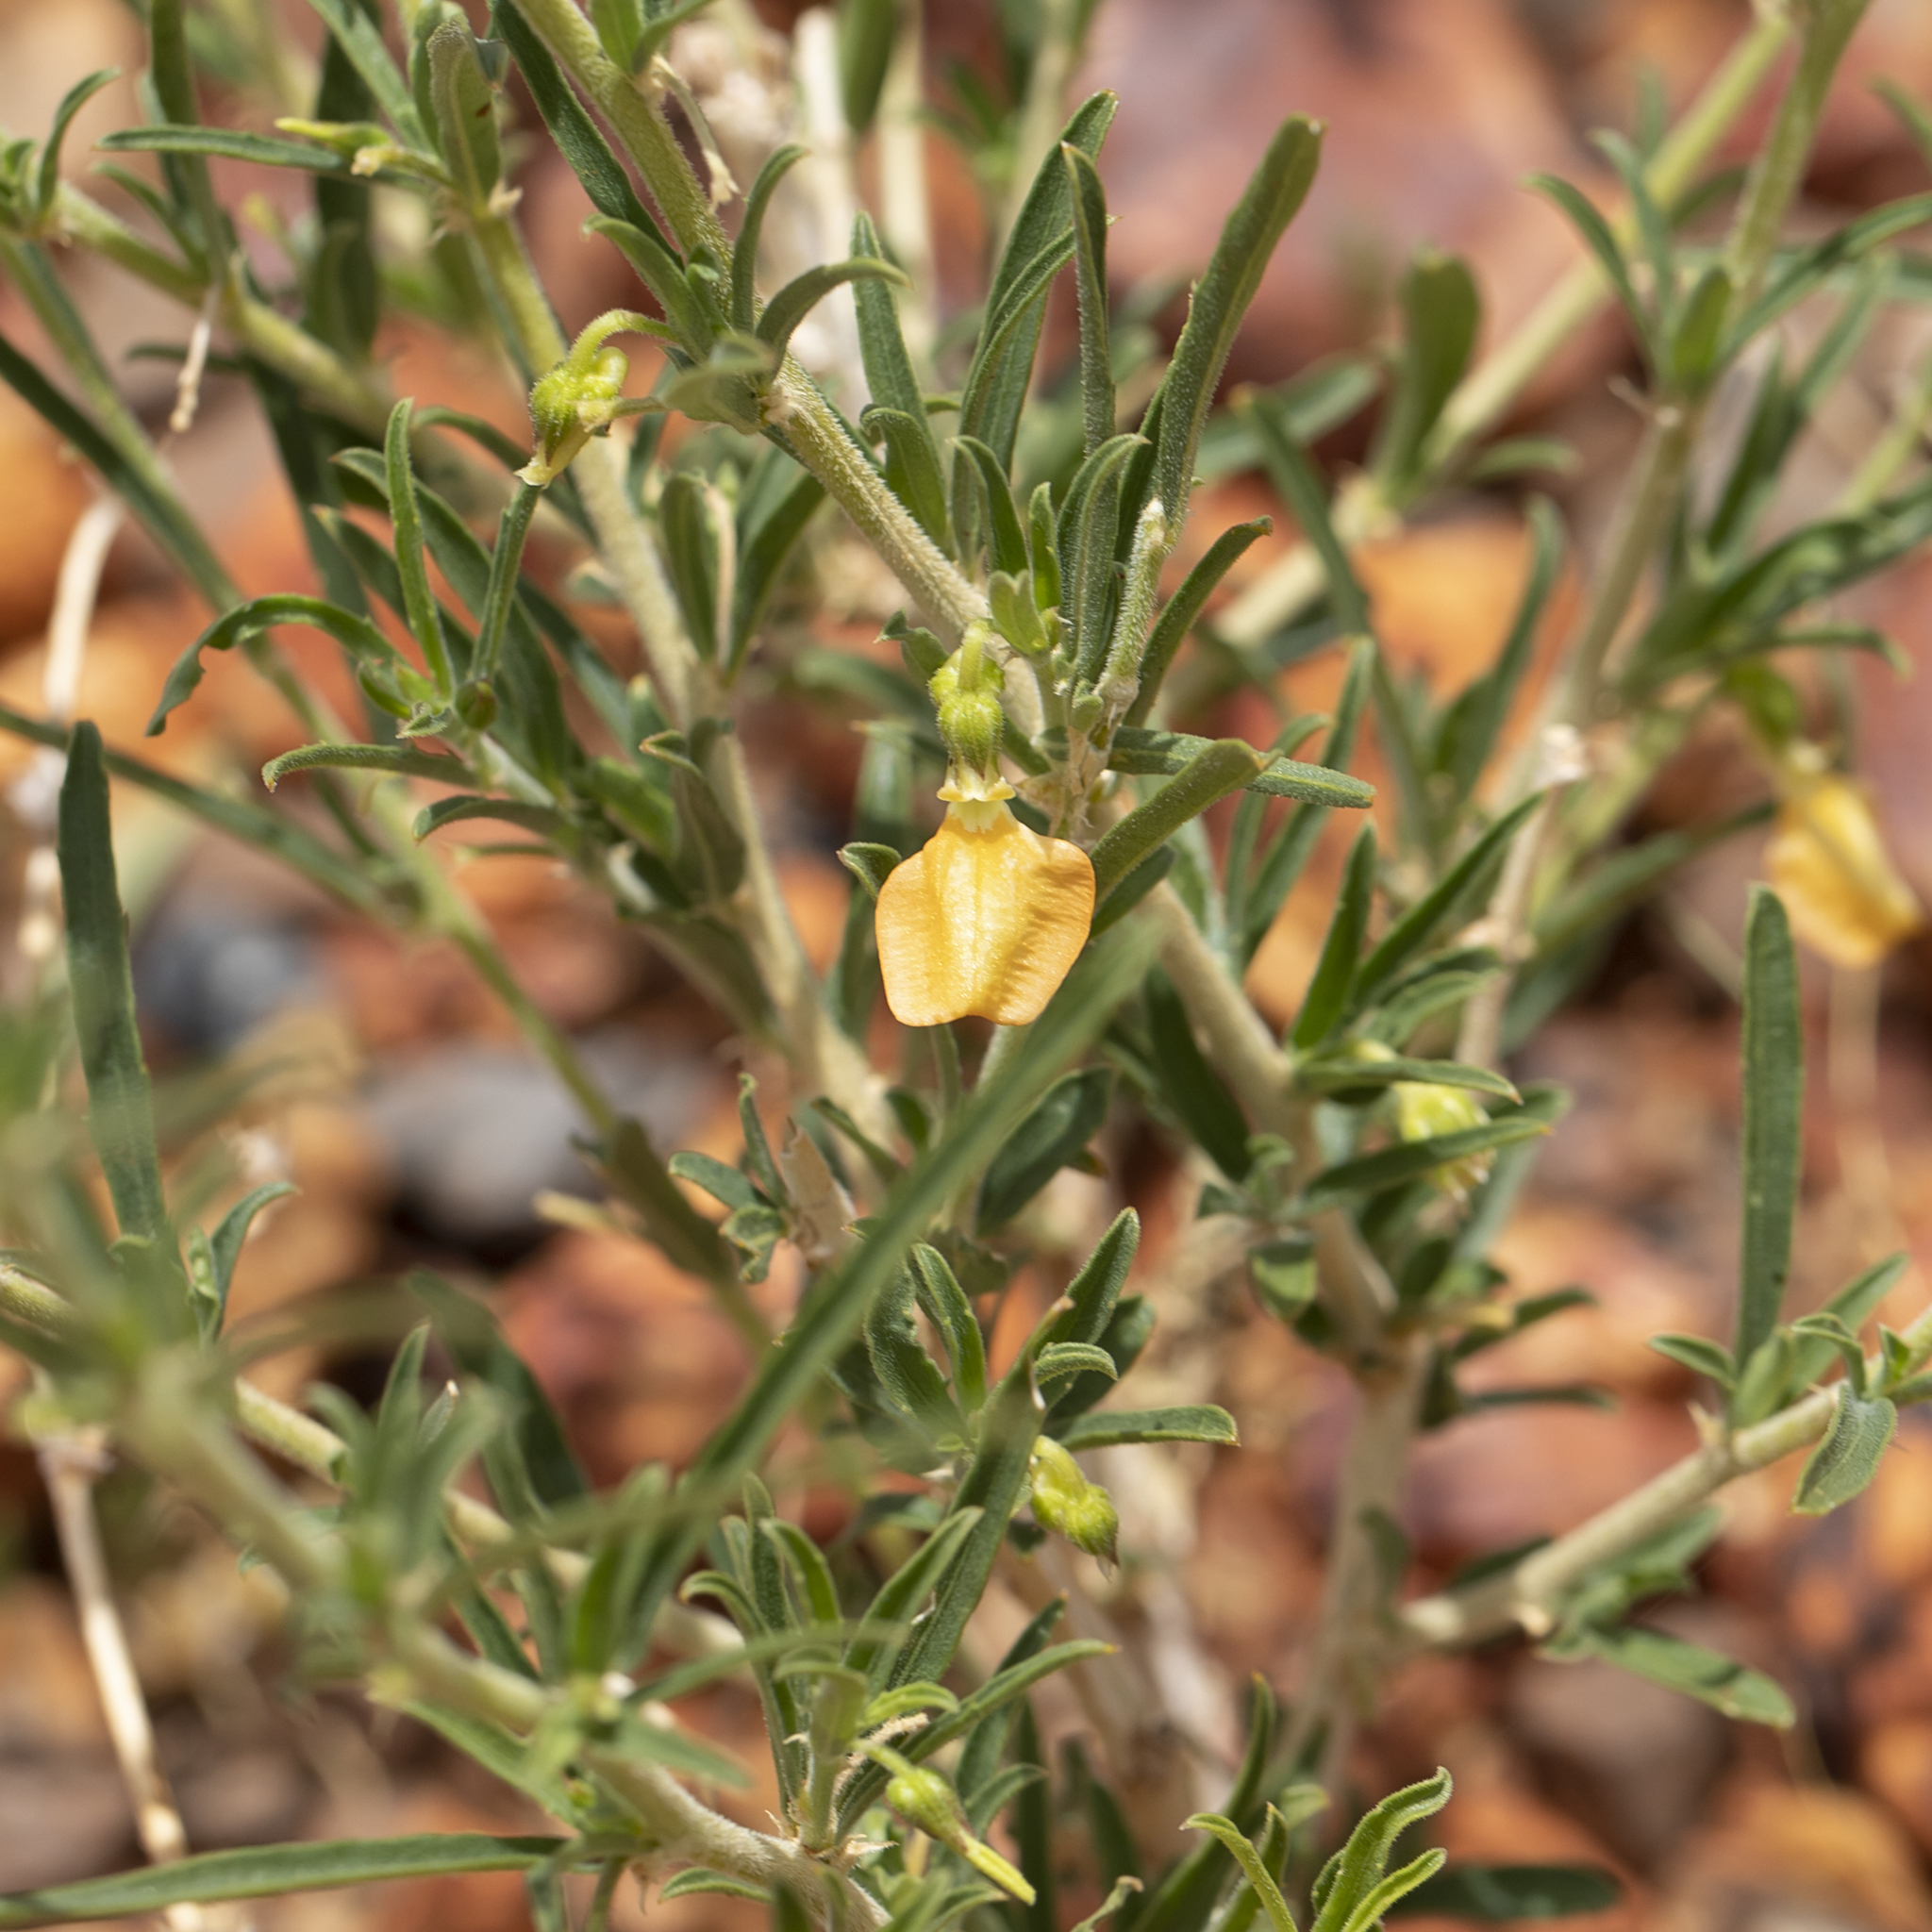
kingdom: Plantae
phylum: Tracheophyta
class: Magnoliopsida
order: Malpighiales
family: Violaceae
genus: Pigea
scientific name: Pigea aurantiaca
